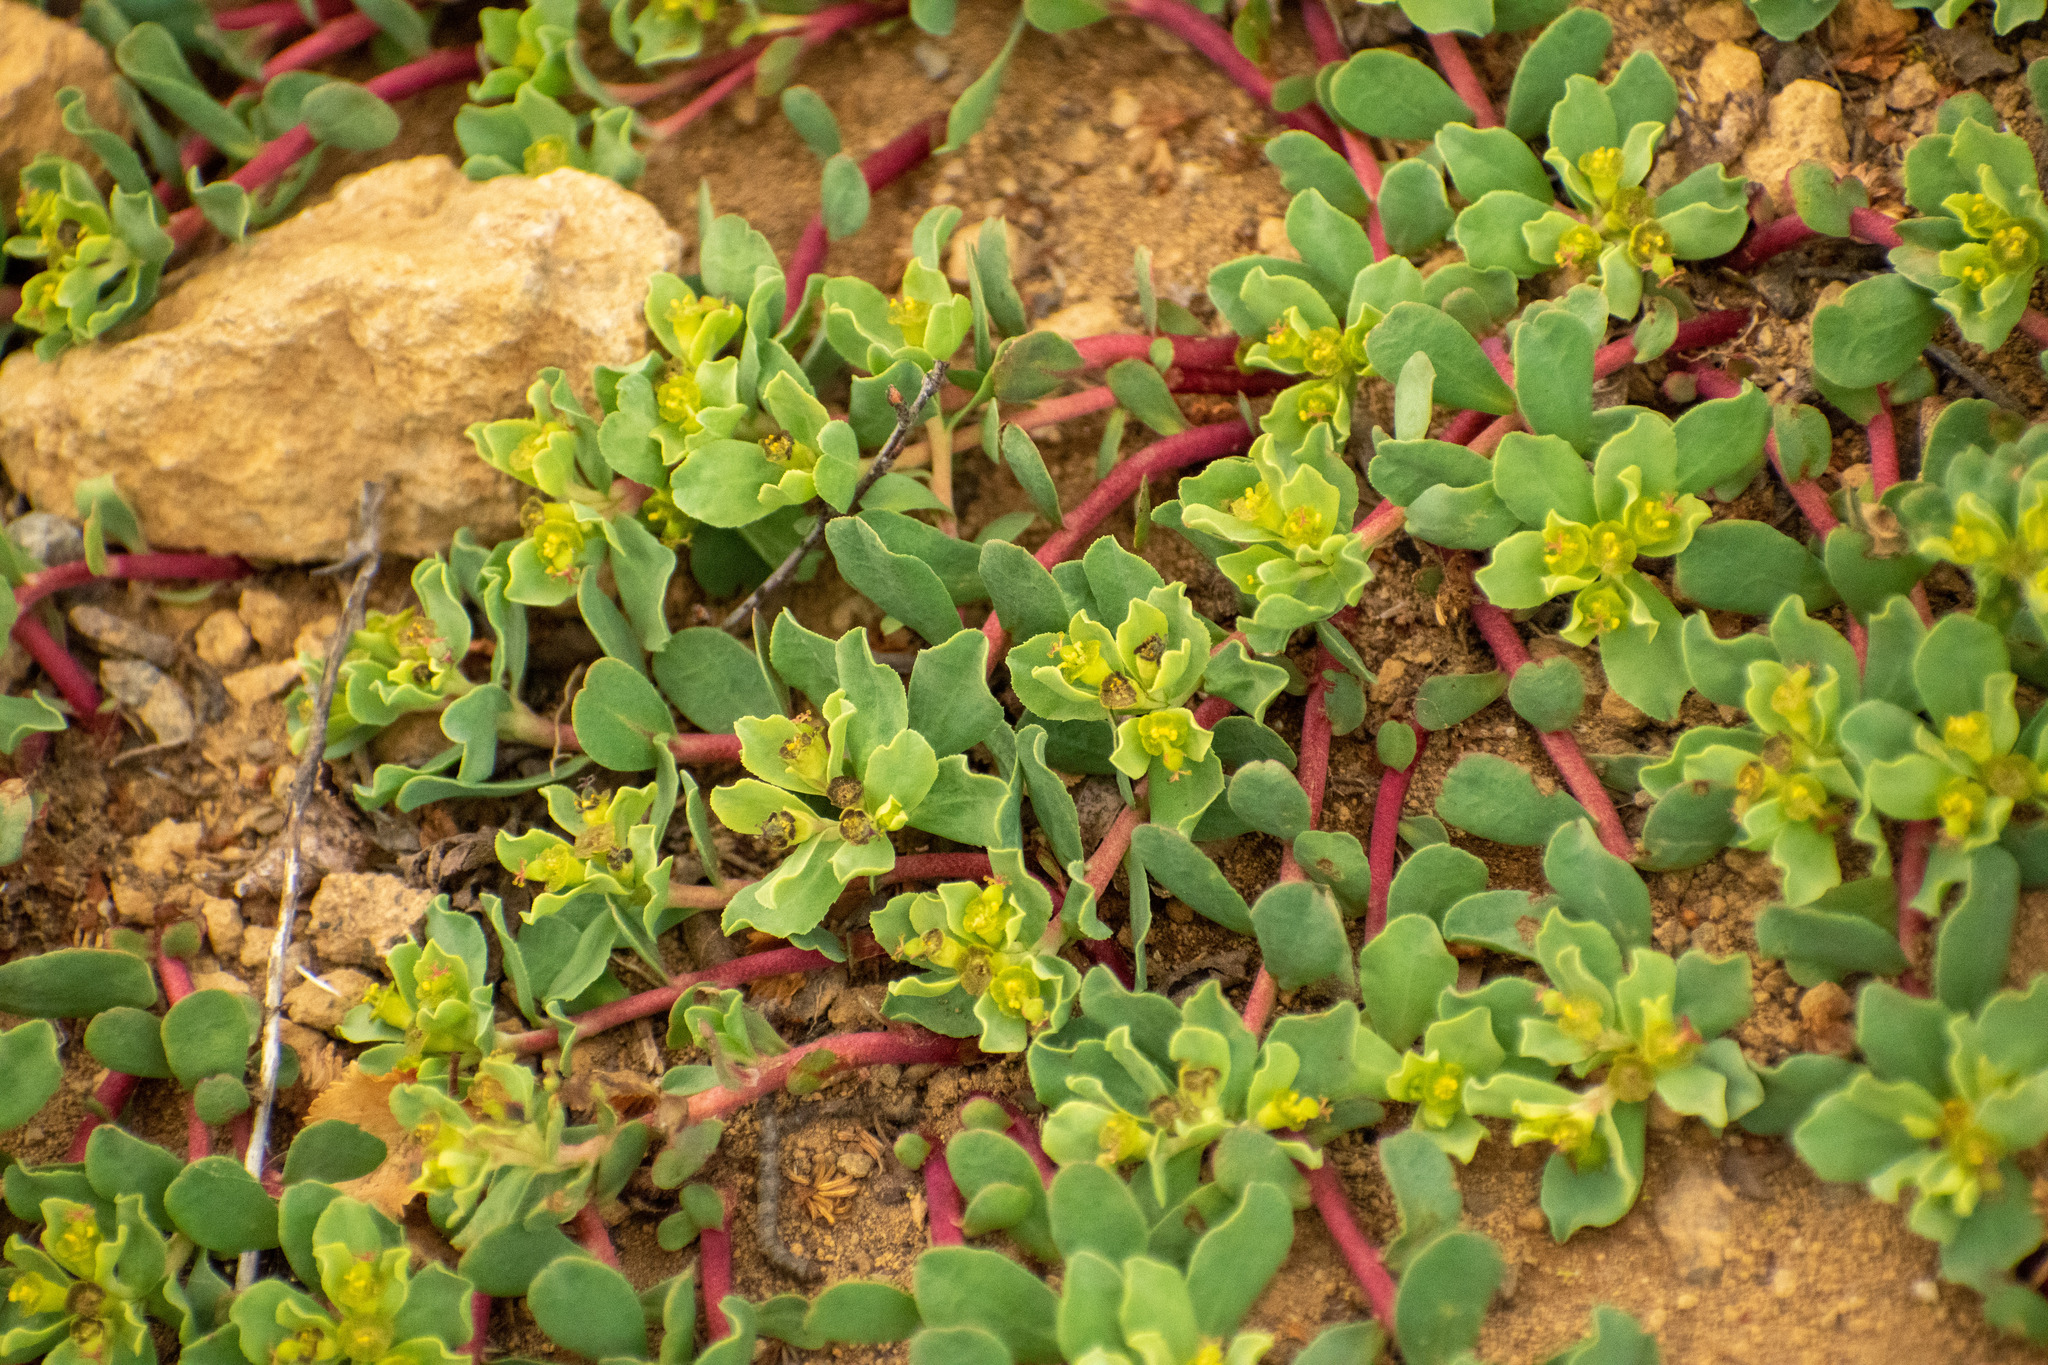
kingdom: Plantae
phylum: Tracheophyta
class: Magnoliopsida
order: Malpighiales
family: Euphorbiaceae
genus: Euphorbia
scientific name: Euphorbia collina
